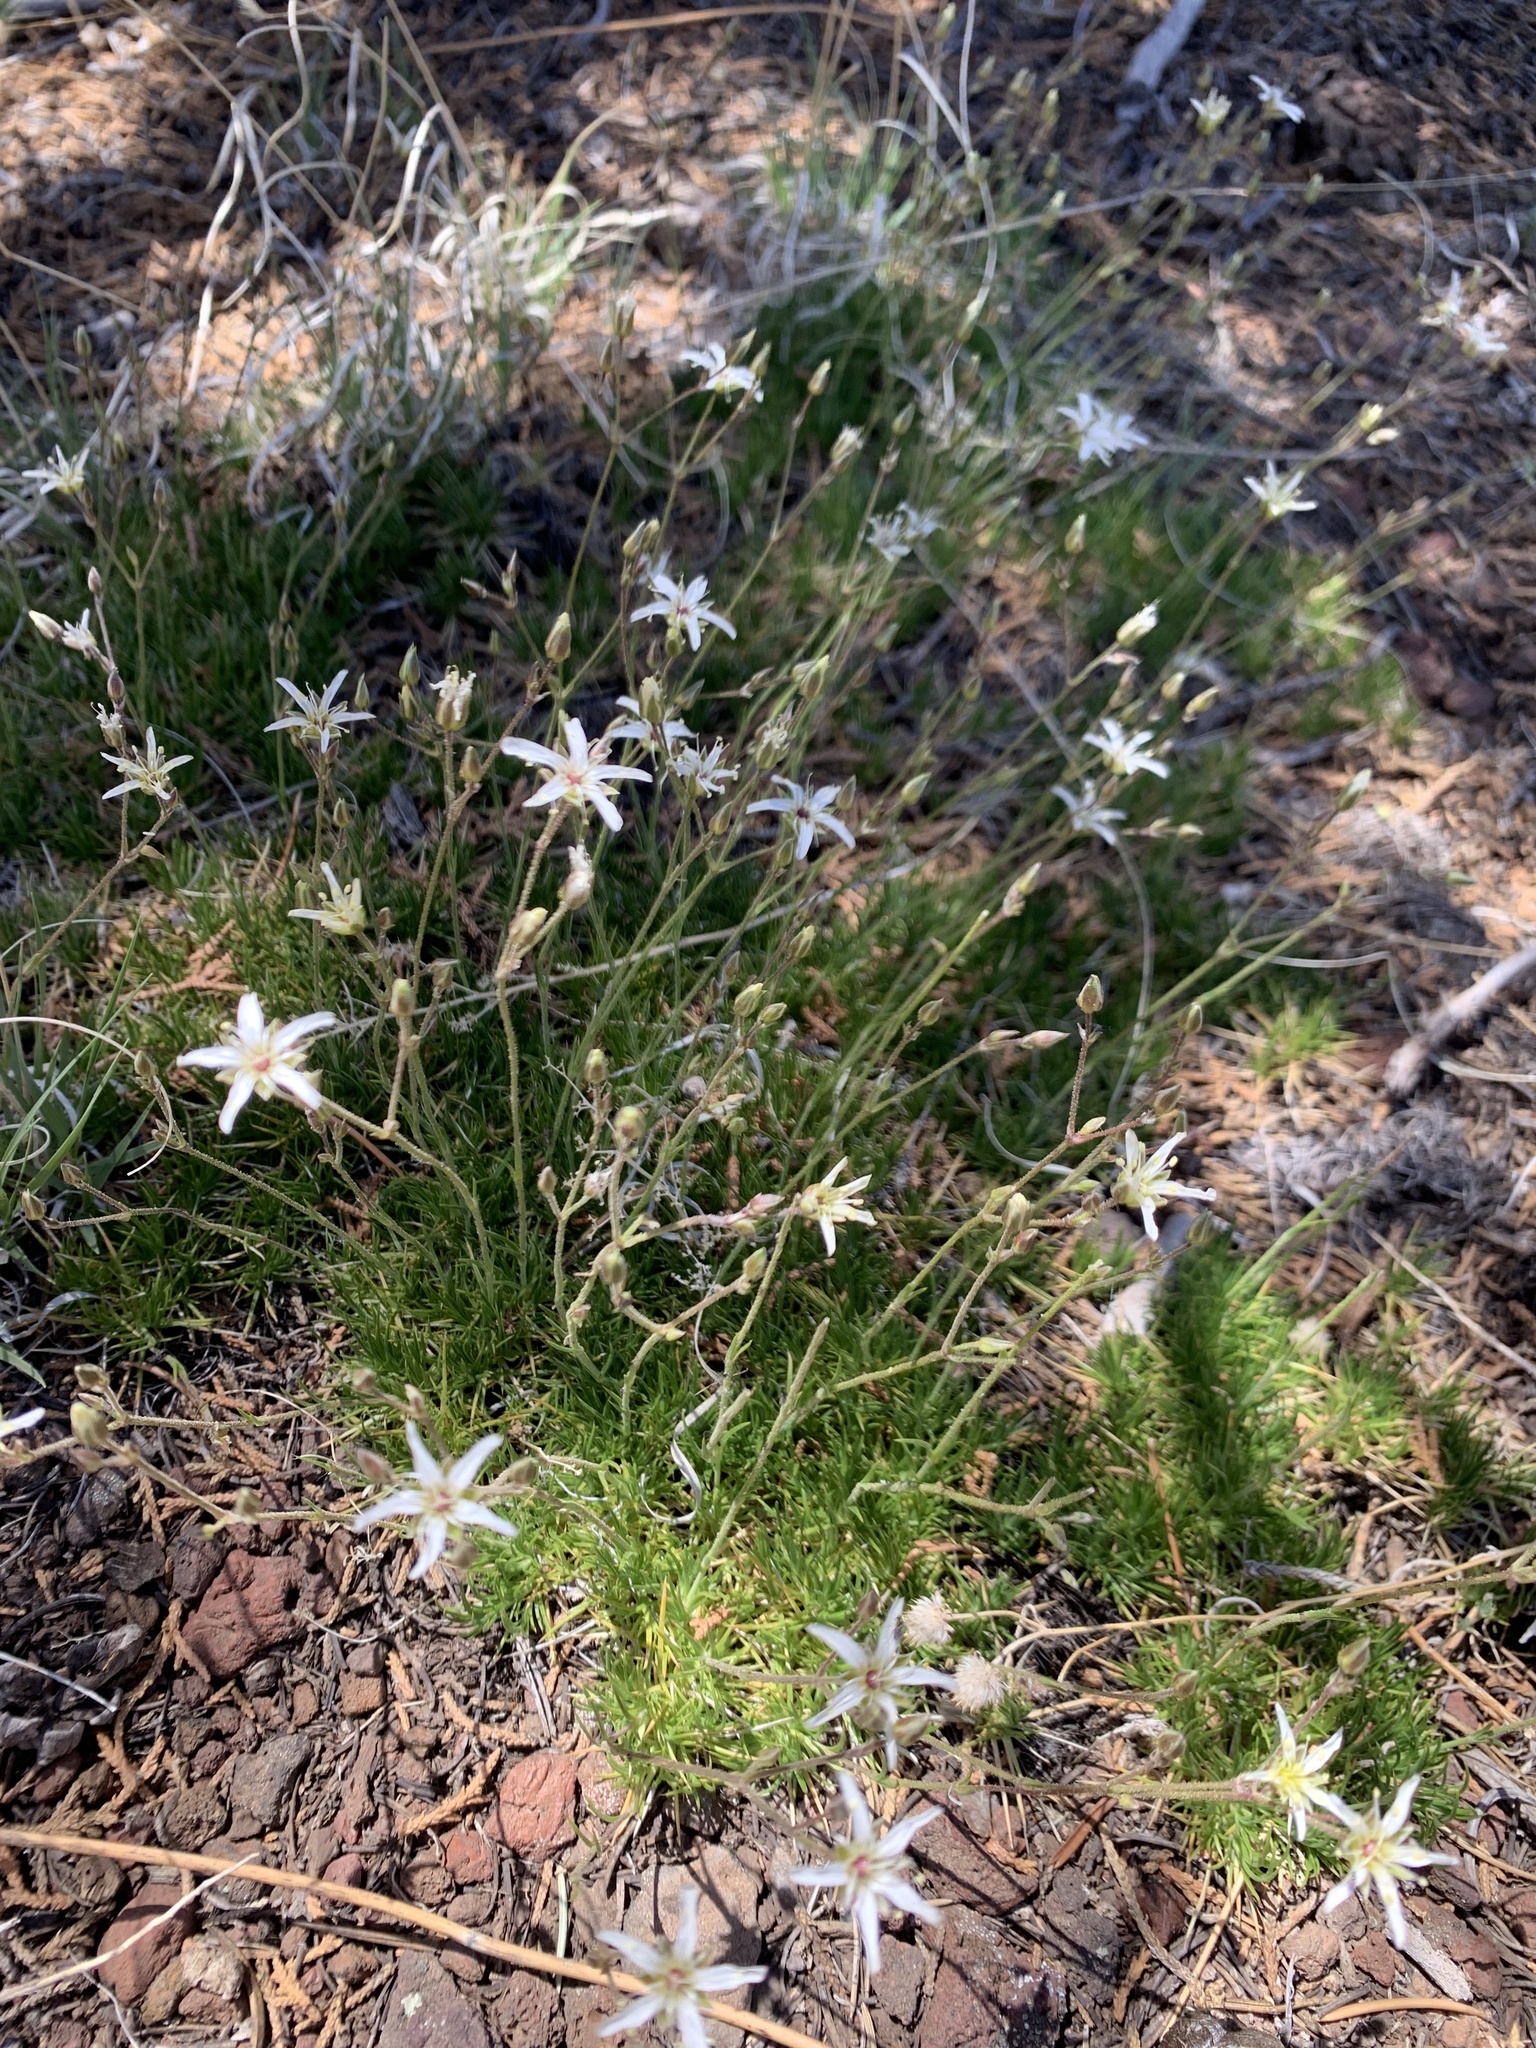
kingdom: Plantae
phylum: Tracheophyta
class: Magnoliopsida
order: Caryophyllales
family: Caryophyllaceae
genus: Eremogone
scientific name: Eremogone aberrans
